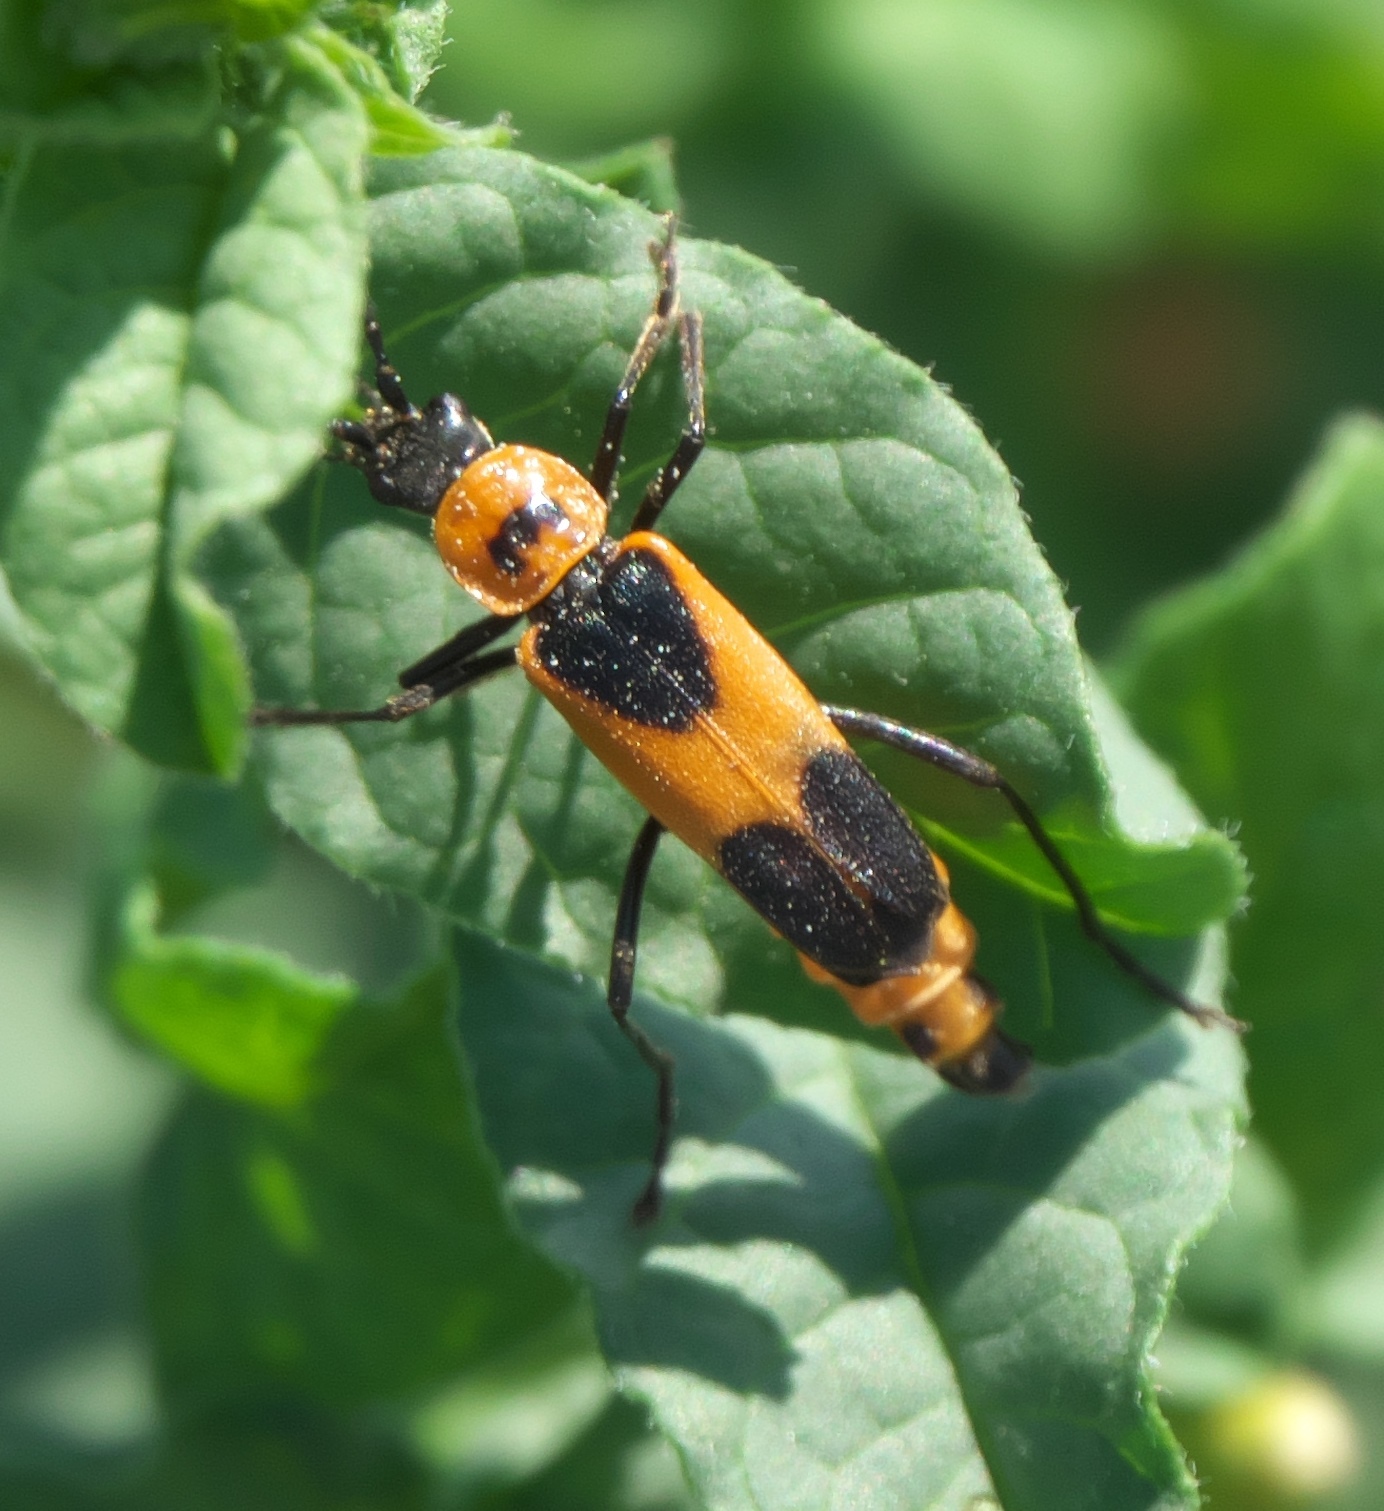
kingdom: Animalia
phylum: Arthropoda
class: Insecta
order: Coleoptera
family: Cantharidae
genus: Chauliognathus
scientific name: Chauliognathus basalis
